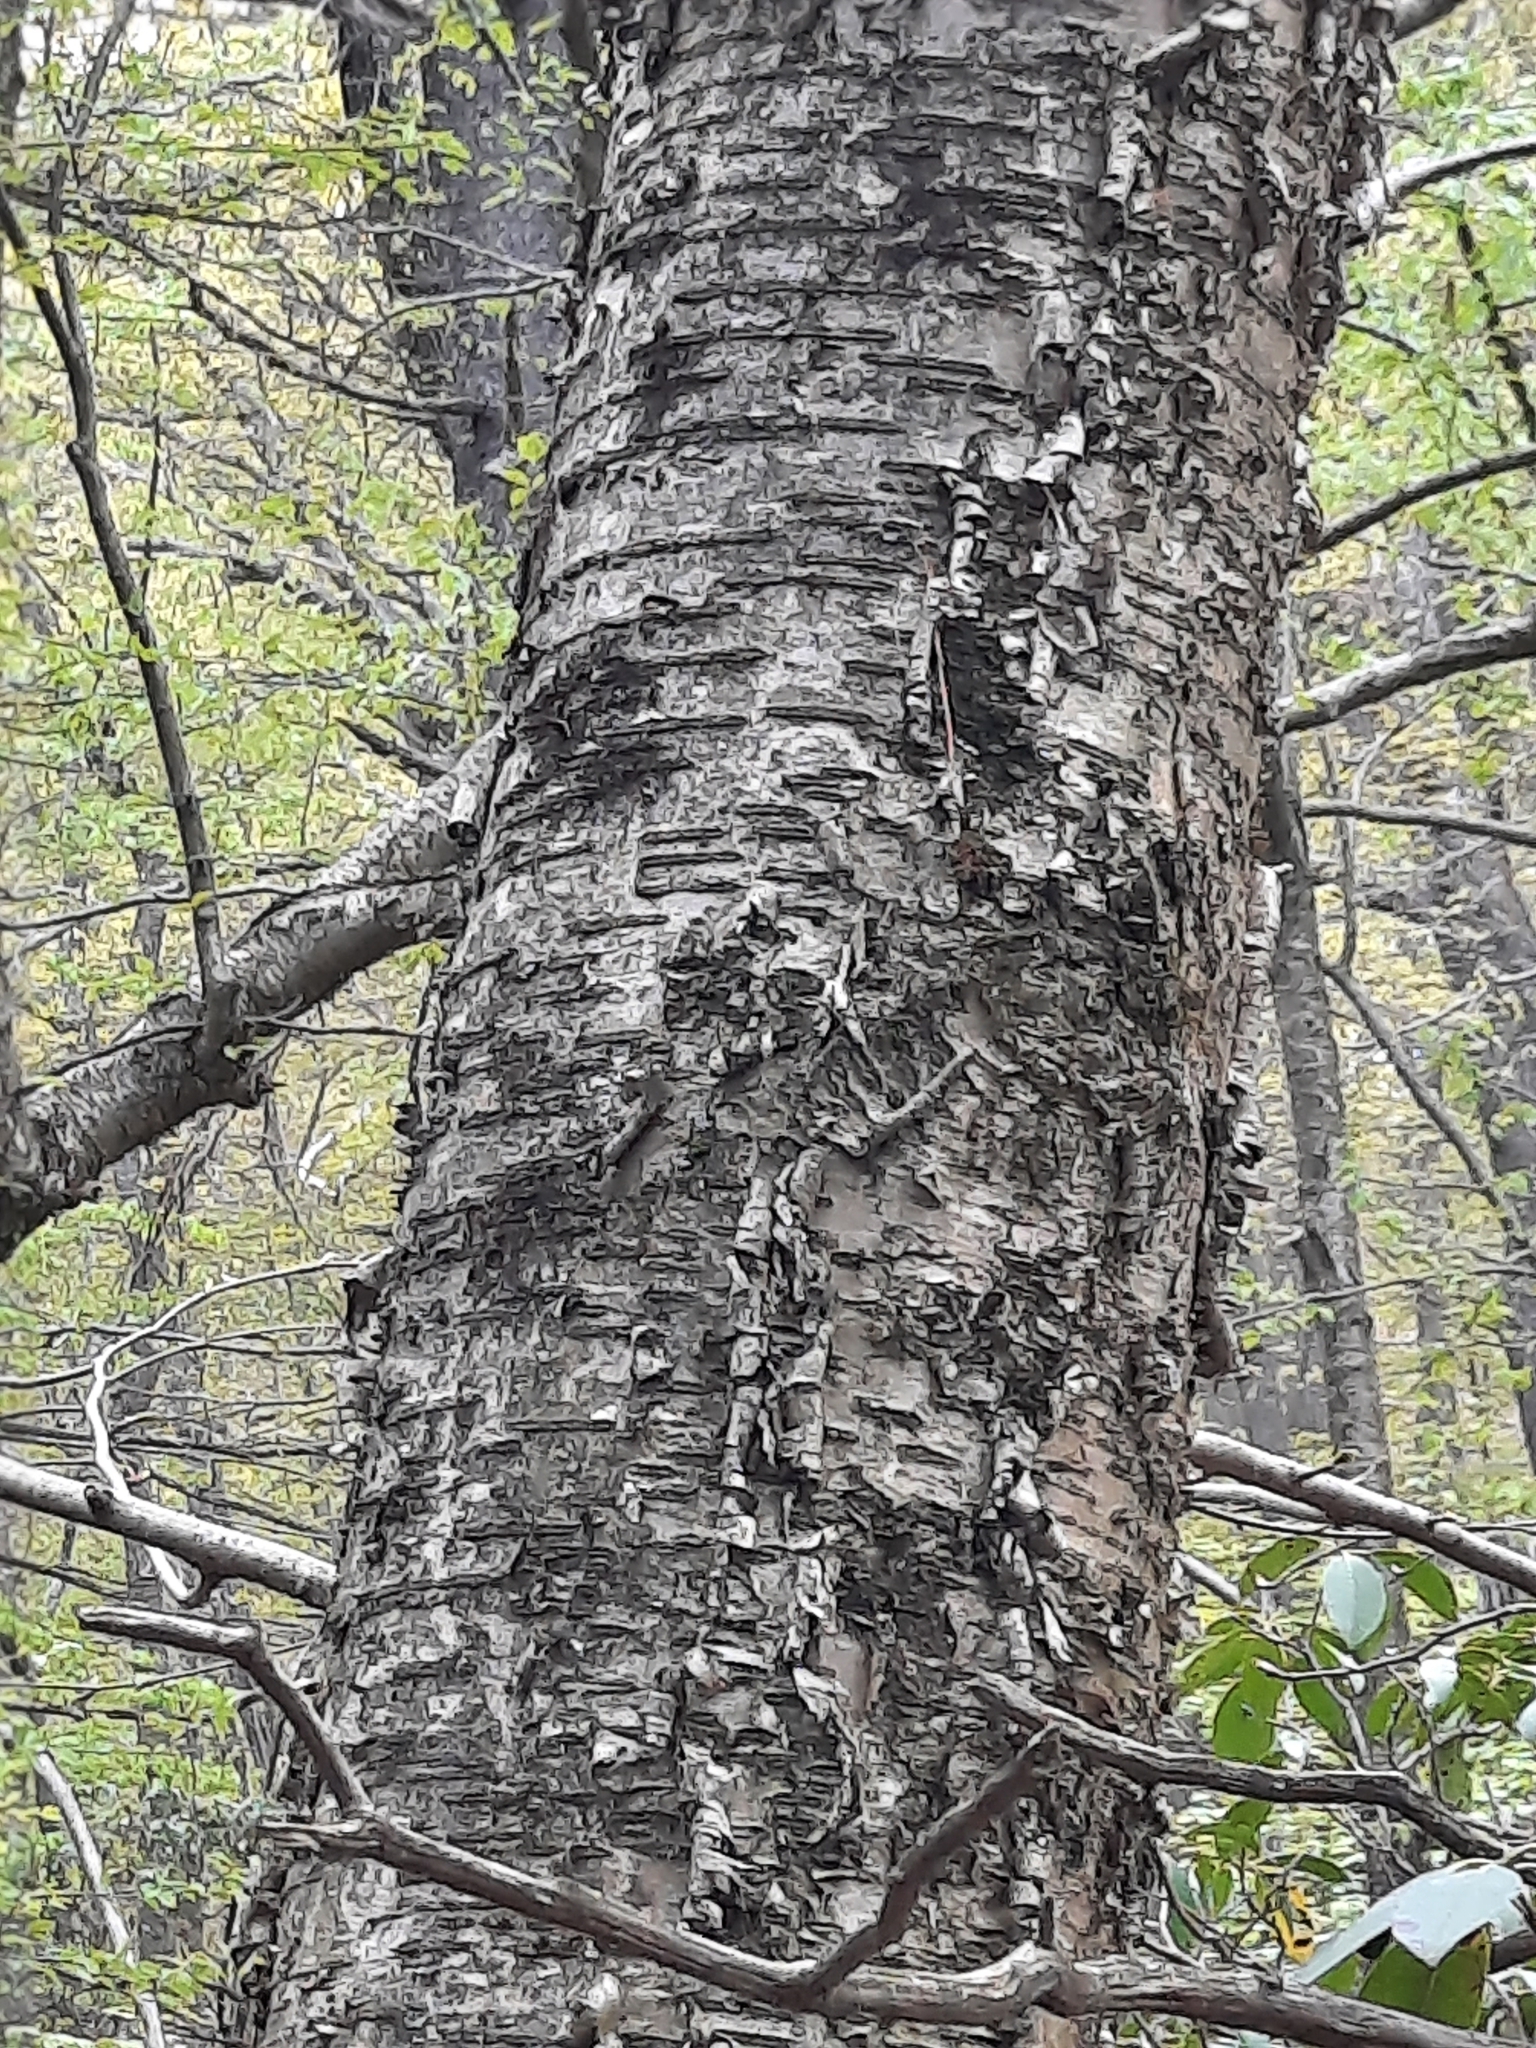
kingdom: Plantae
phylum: Tracheophyta
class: Magnoliopsida
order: Fagales
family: Betulaceae
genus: Betula
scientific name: Betula alleghaniensis
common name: Yellow birch
